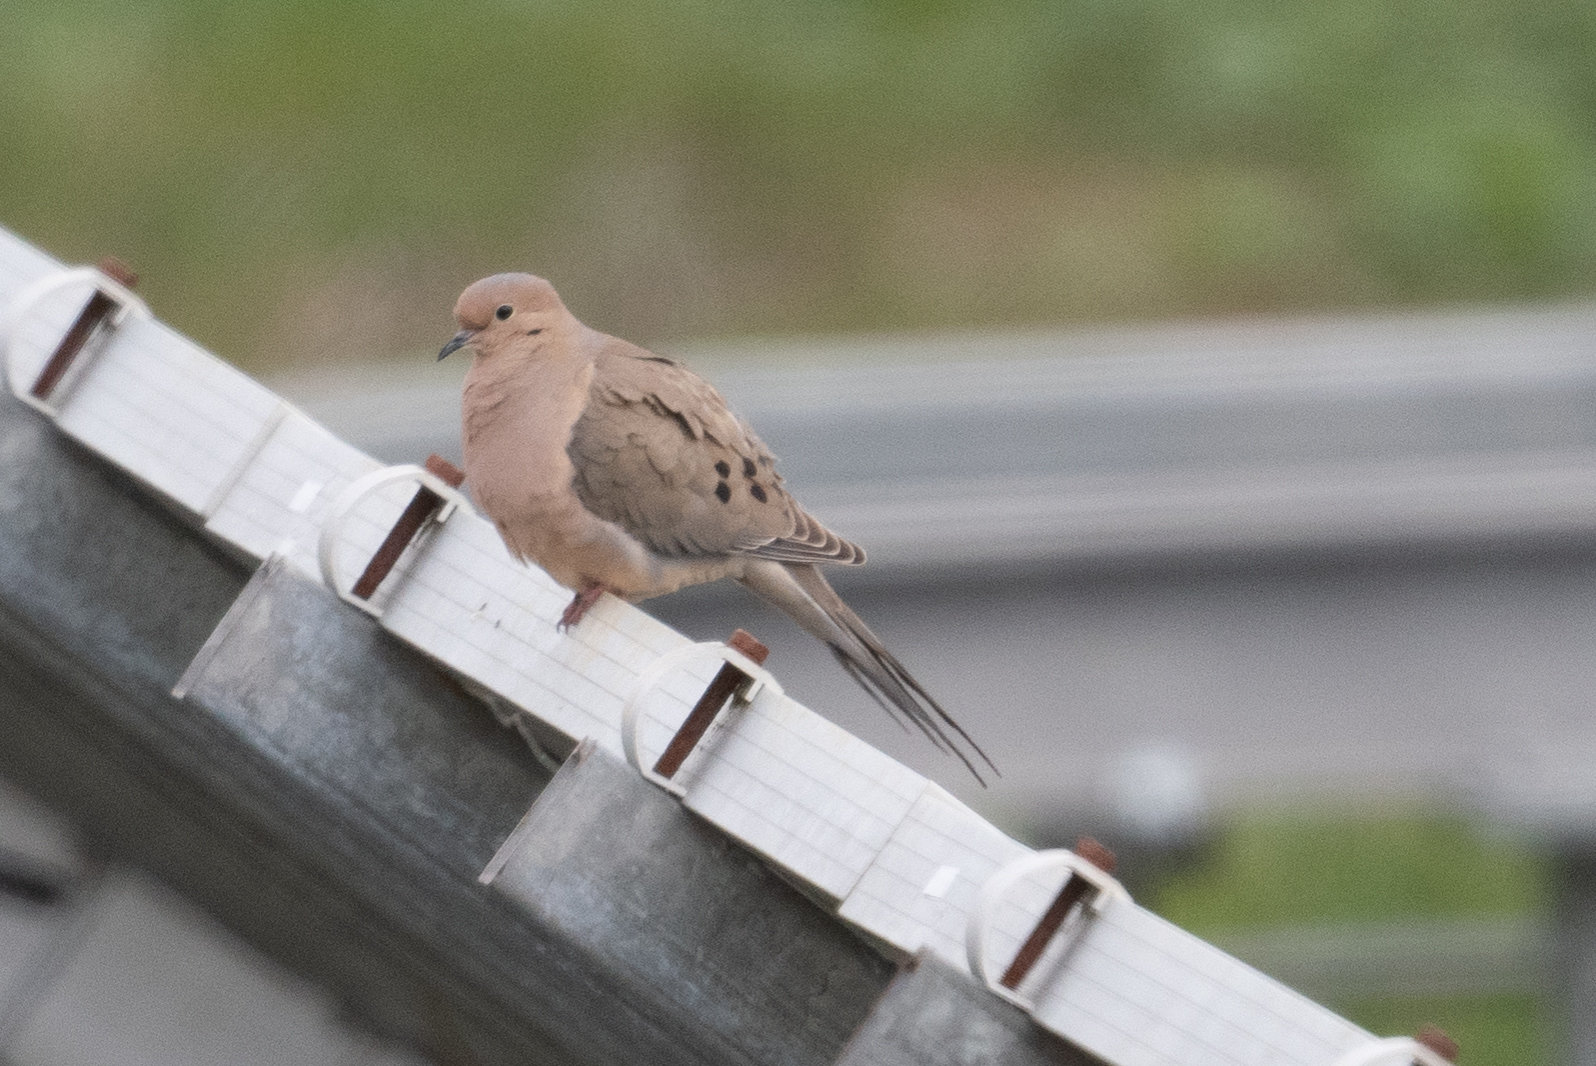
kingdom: Animalia
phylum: Chordata
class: Aves
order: Columbiformes
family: Columbidae
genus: Zenaida
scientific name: Zenaida macroura
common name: Mourning dove
